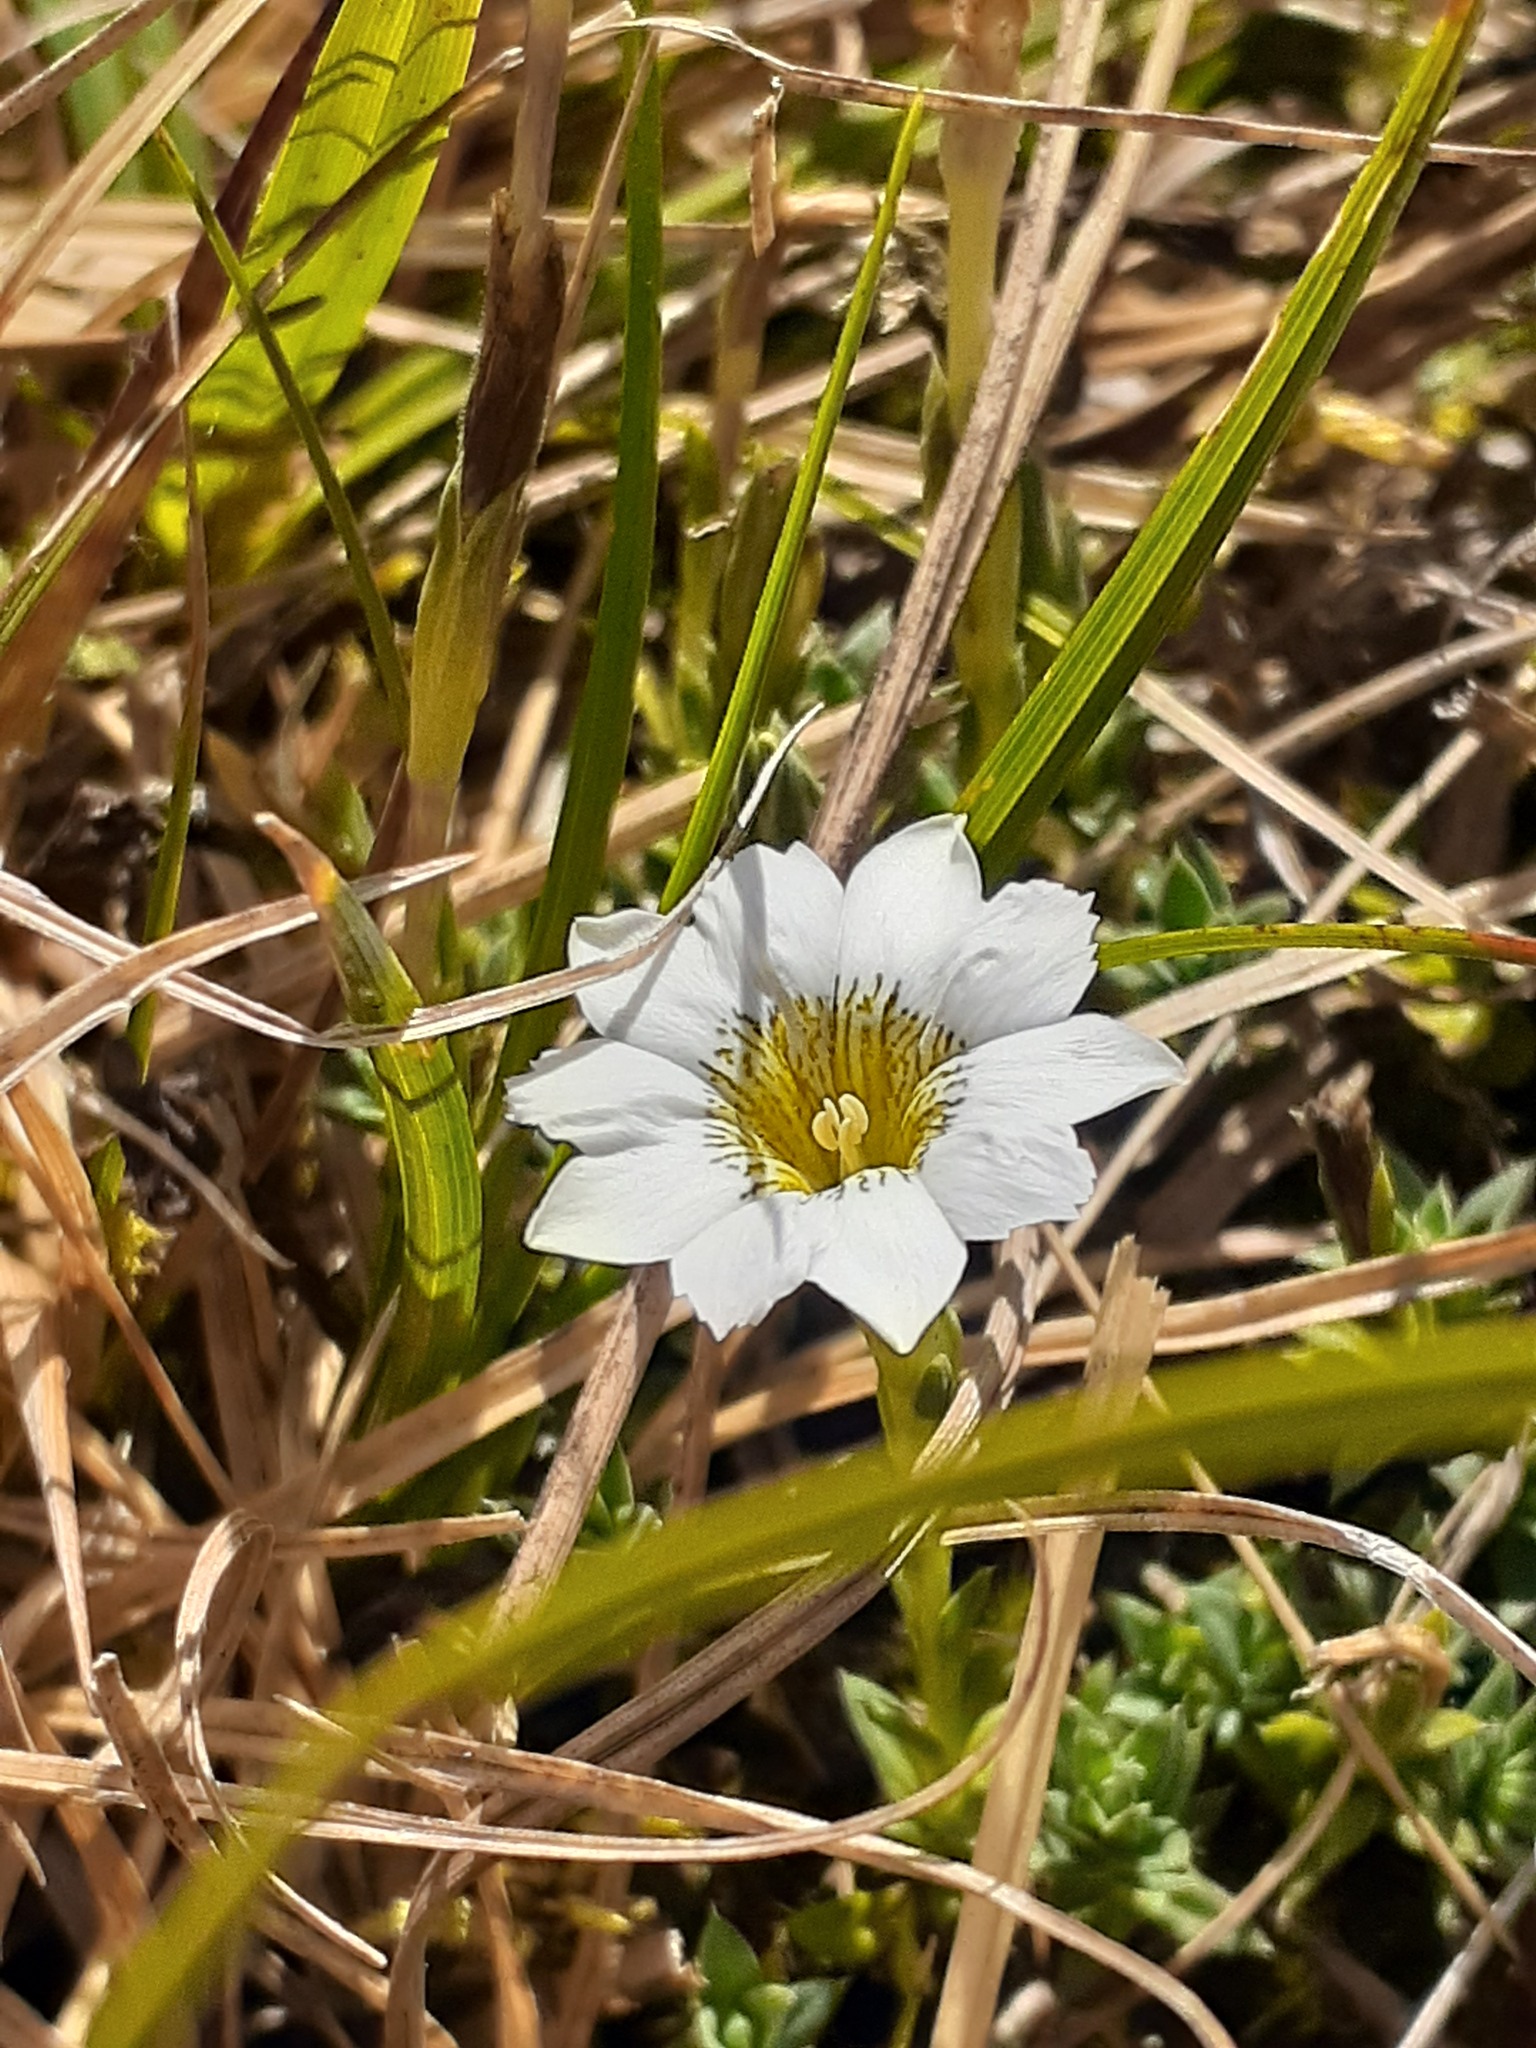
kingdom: Plantae
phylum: Tracheophyta
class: Magnoliopsida
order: Gentianales
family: Gentianaceae
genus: Gentiana
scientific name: Gentiana sedifolia
